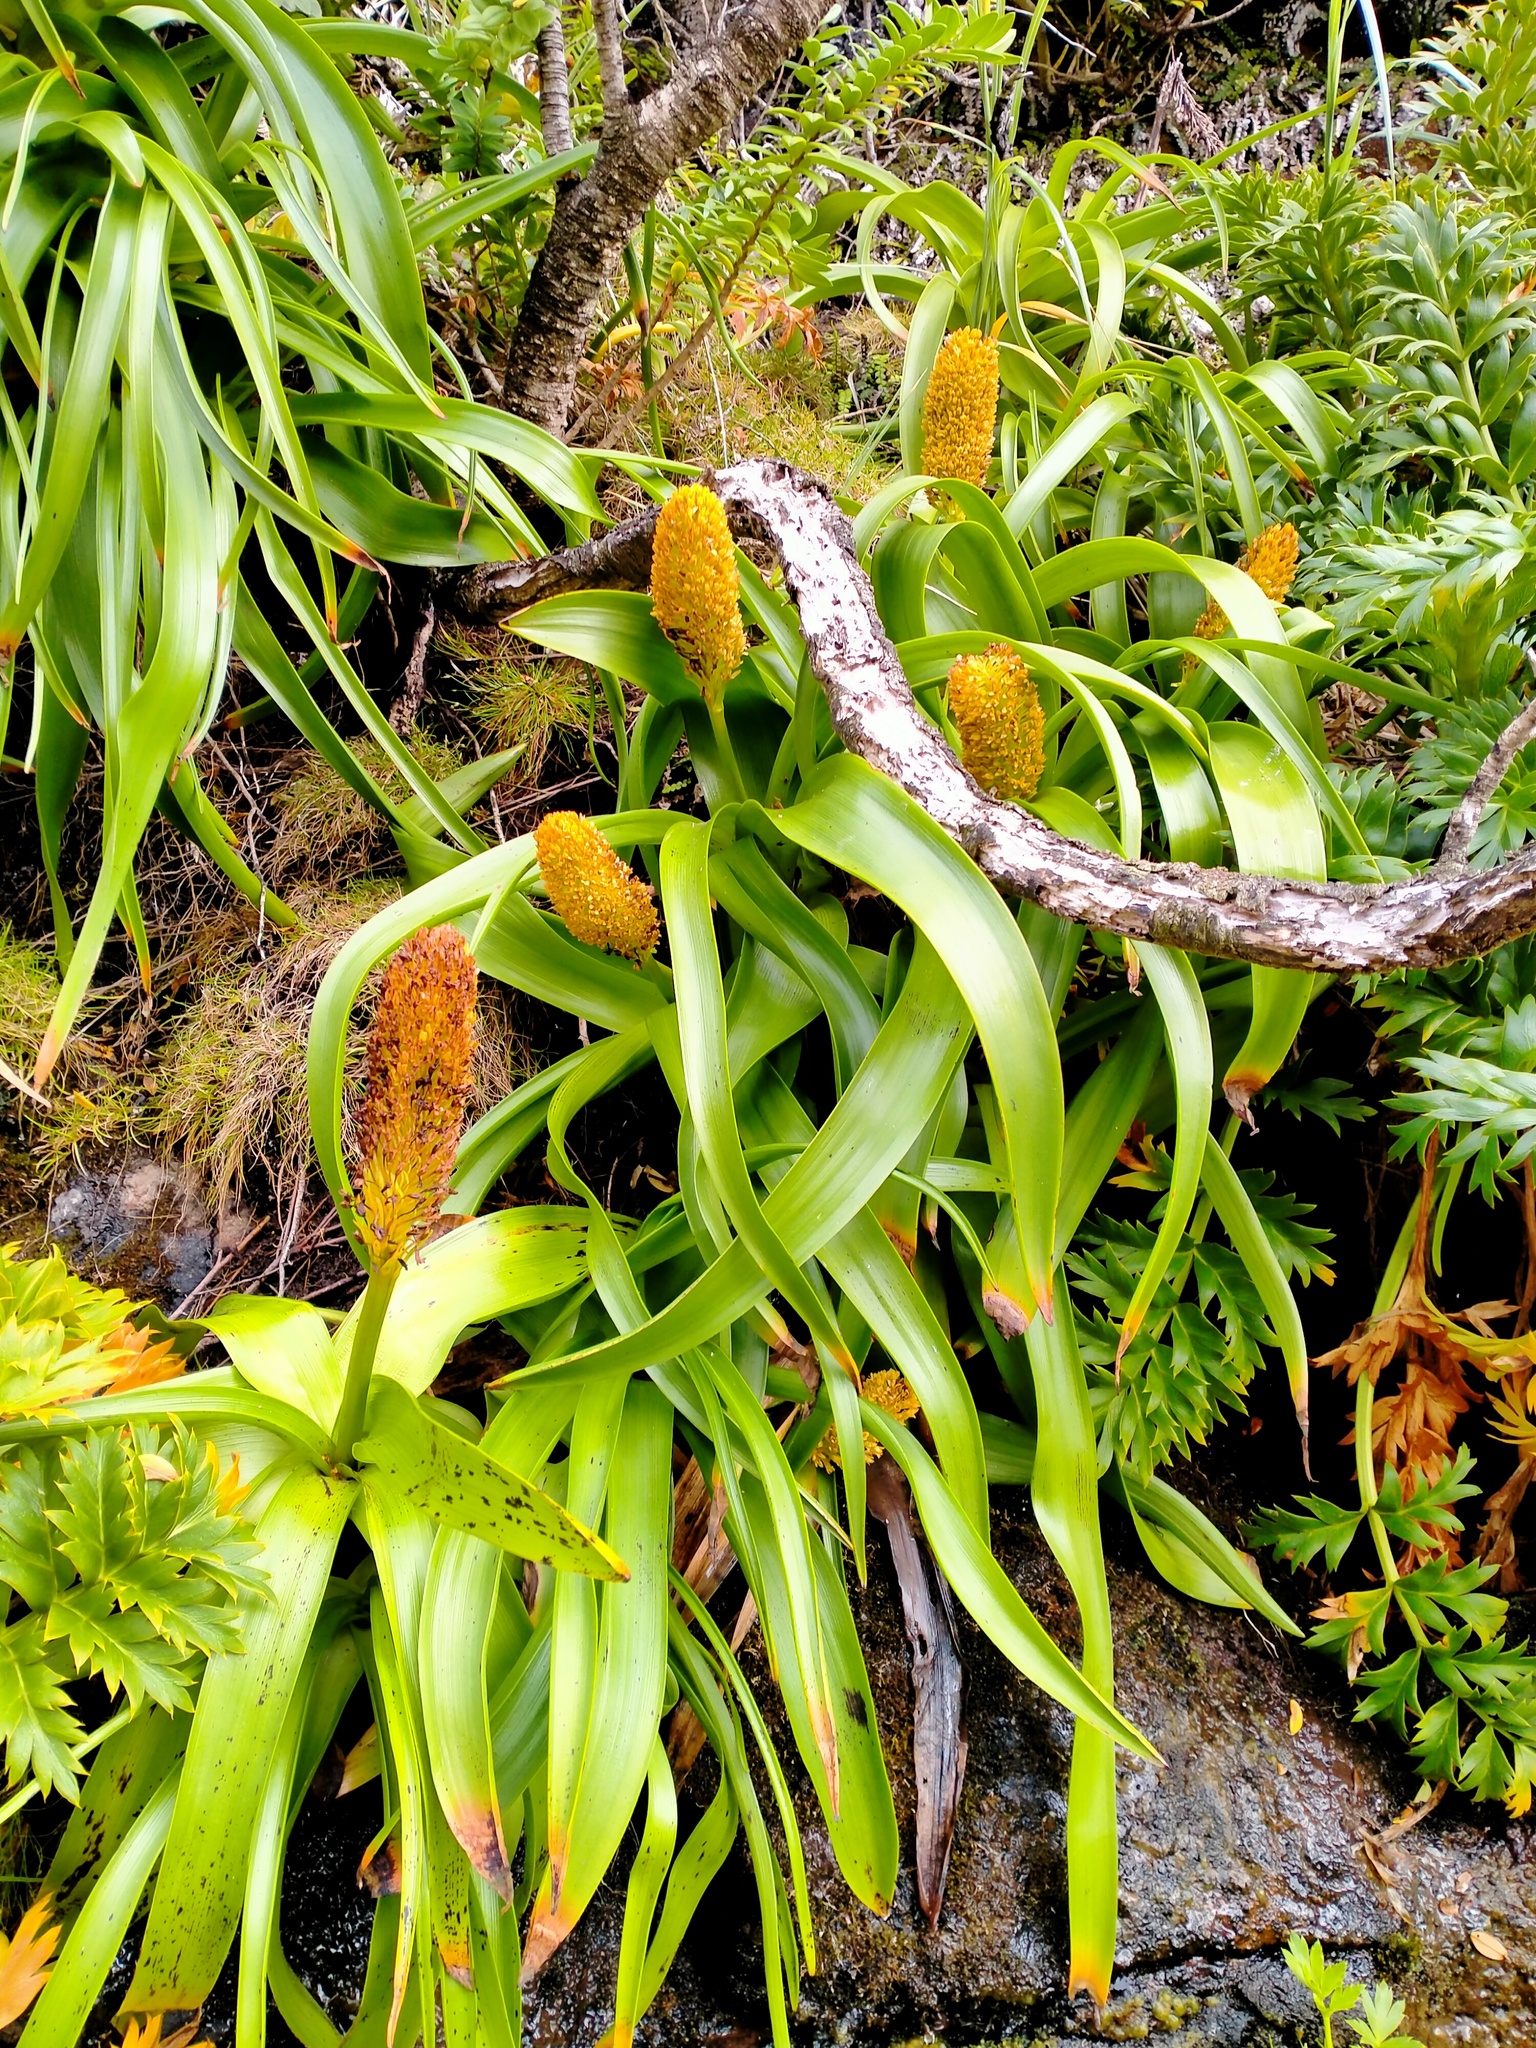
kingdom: Plantae
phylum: Tracheophyta
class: Liliopsida
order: Asparagales
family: Asphodelaceae
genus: Bulbinella
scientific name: Bulbinella rossii
